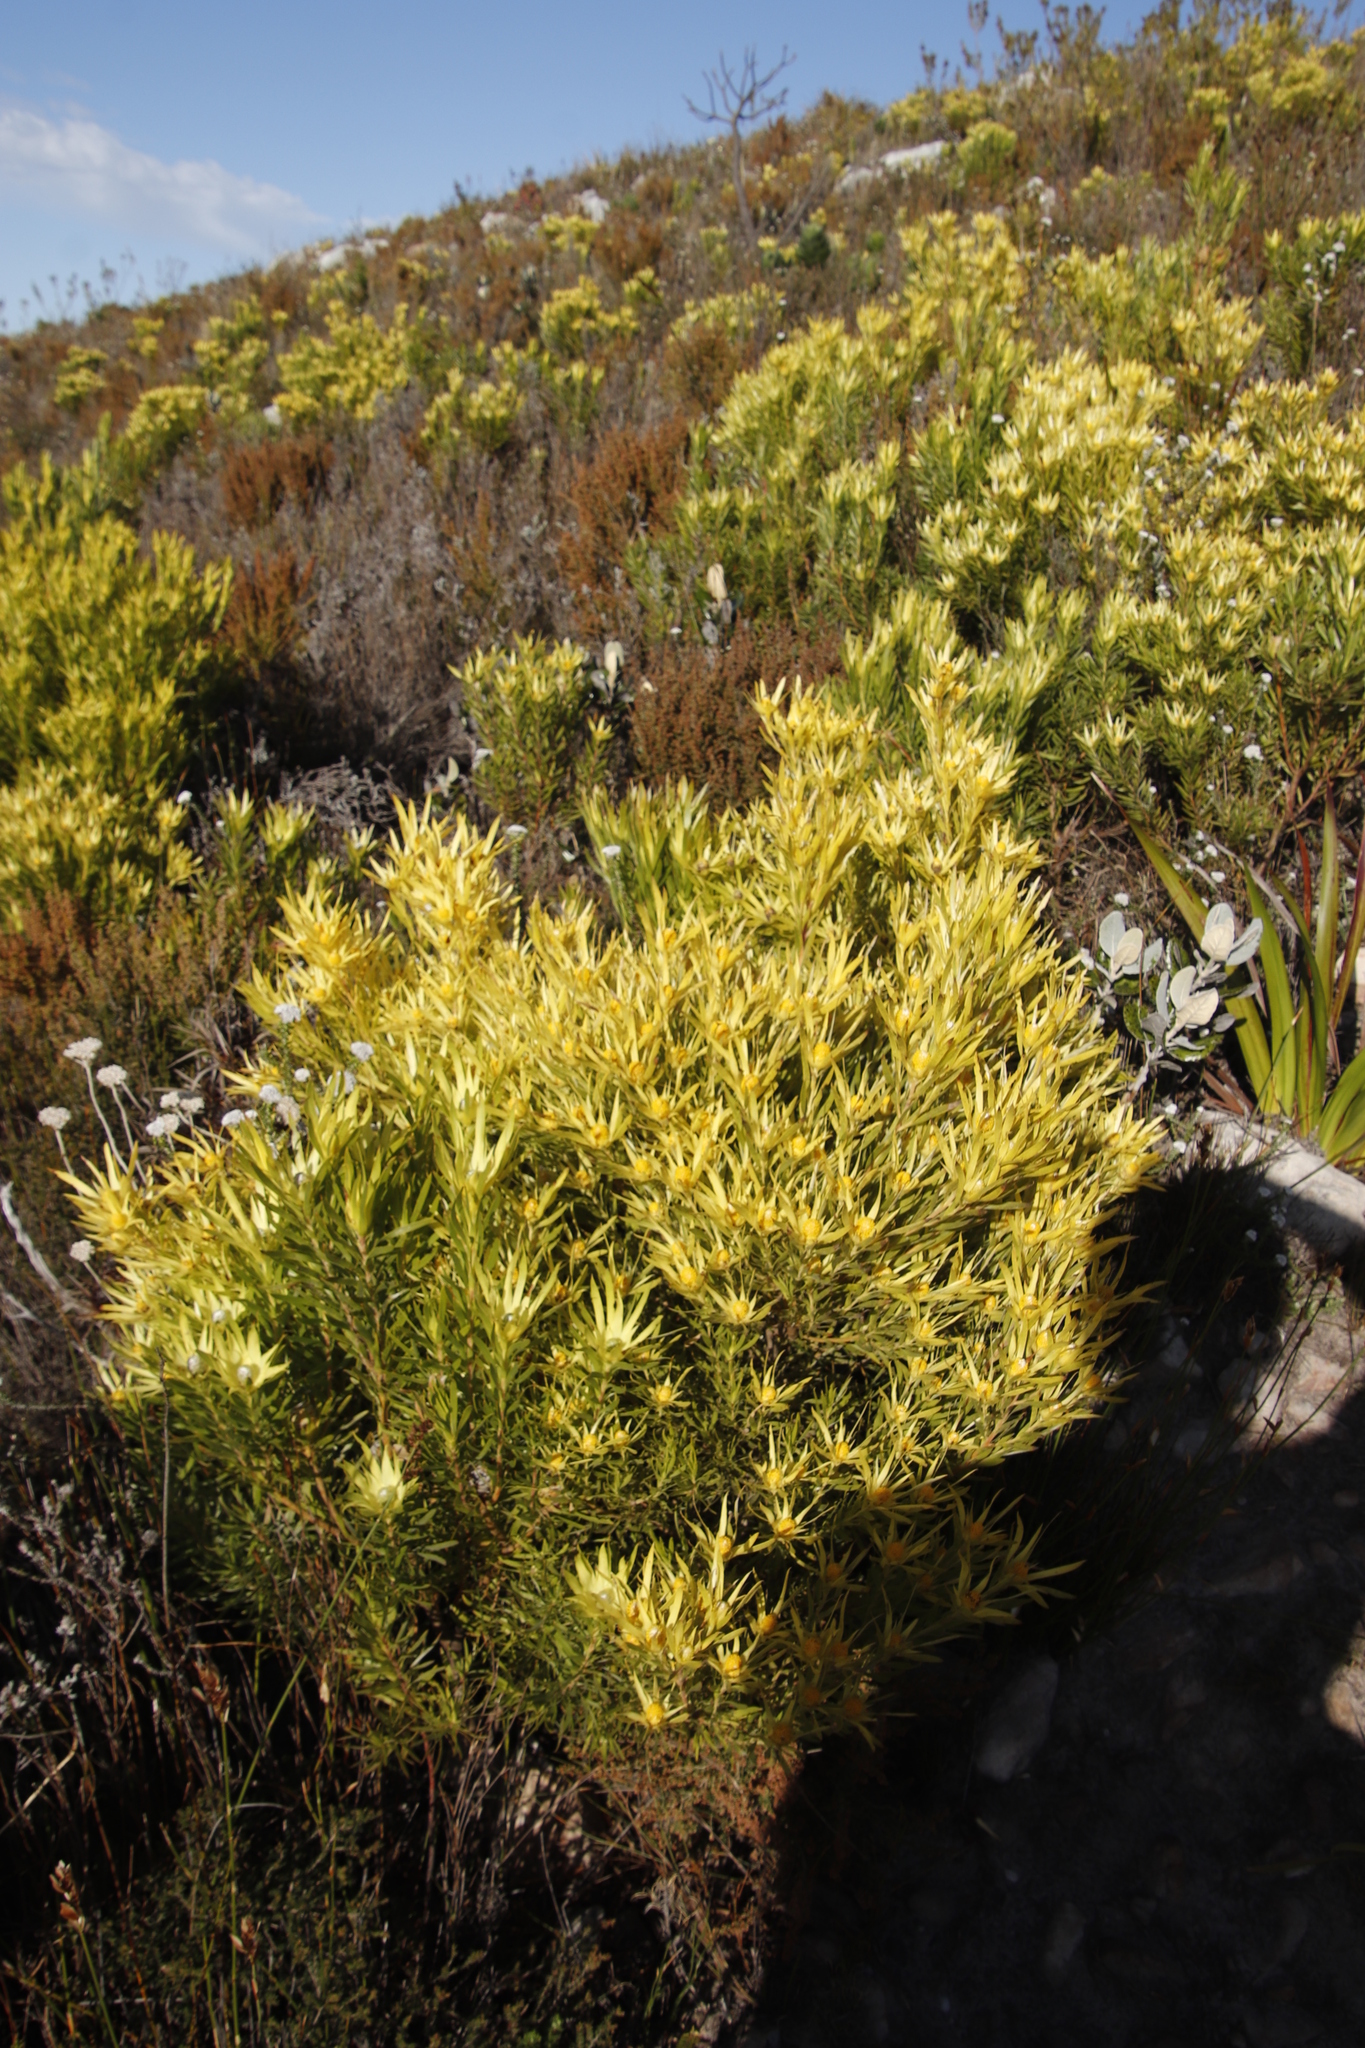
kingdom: Plantae
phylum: Tracheophyta
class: Magnoliopsida
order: Proteales
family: Proteaceae
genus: Leucadendron
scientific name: Leucadendron xanthoconus
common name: Sickle-leaf conebush
